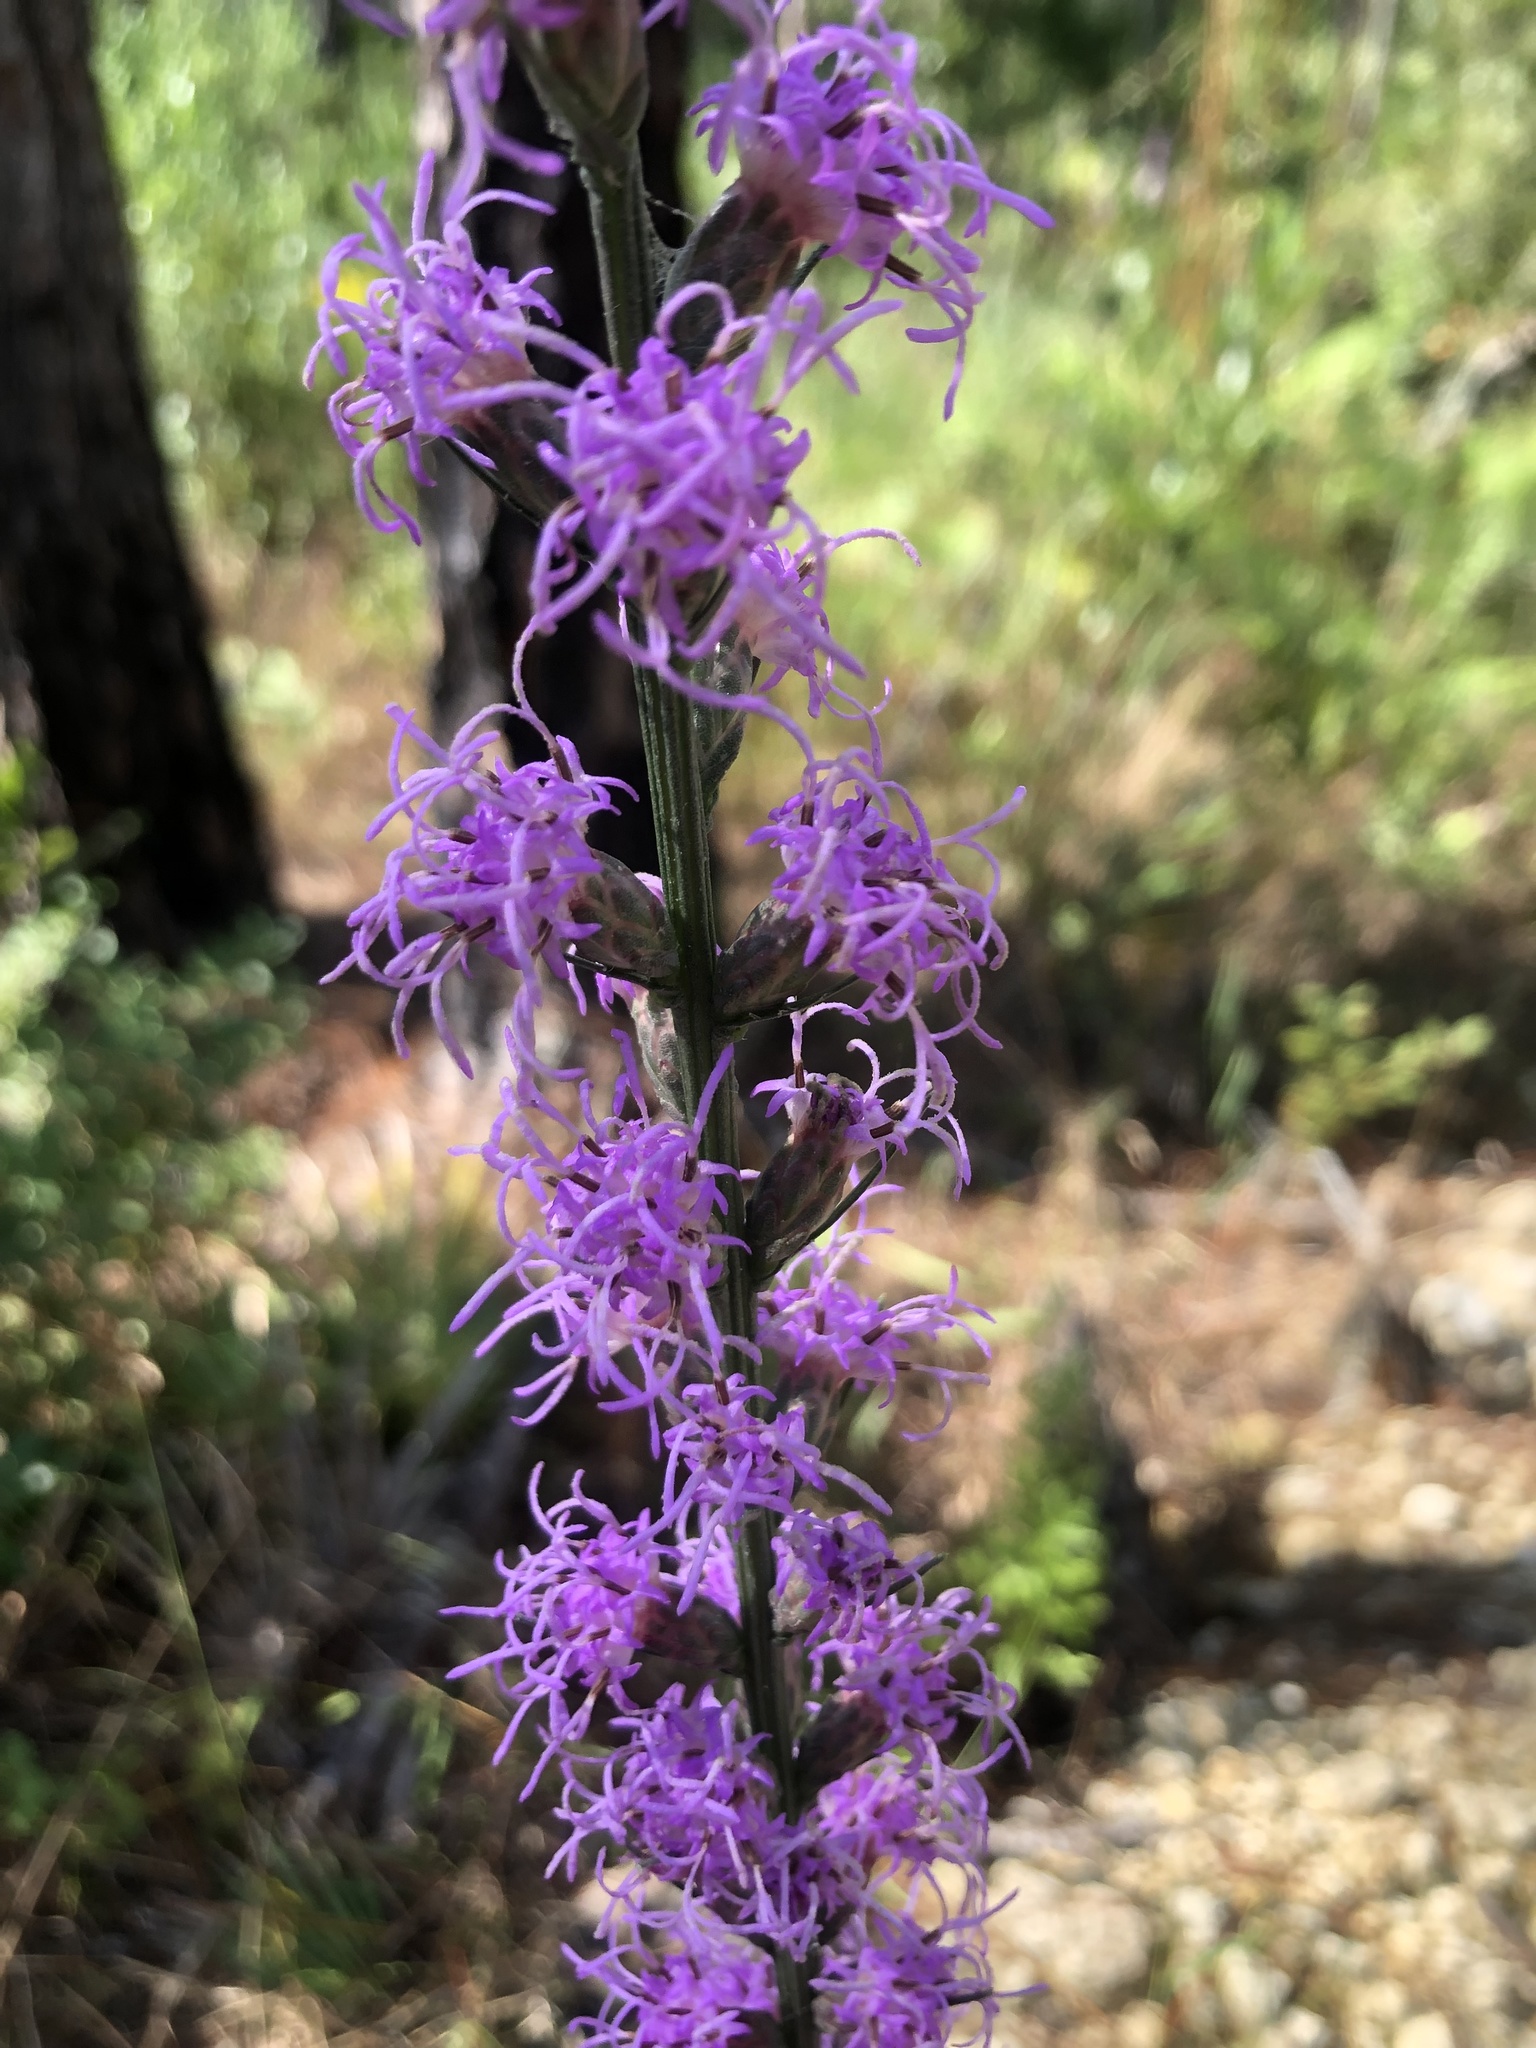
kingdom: Plantae
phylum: Tracheophyta
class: Magnoliopsida
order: Asterales
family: Asteraceae
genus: Liatris
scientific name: Liatris spicata
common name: Florist gayfeather
